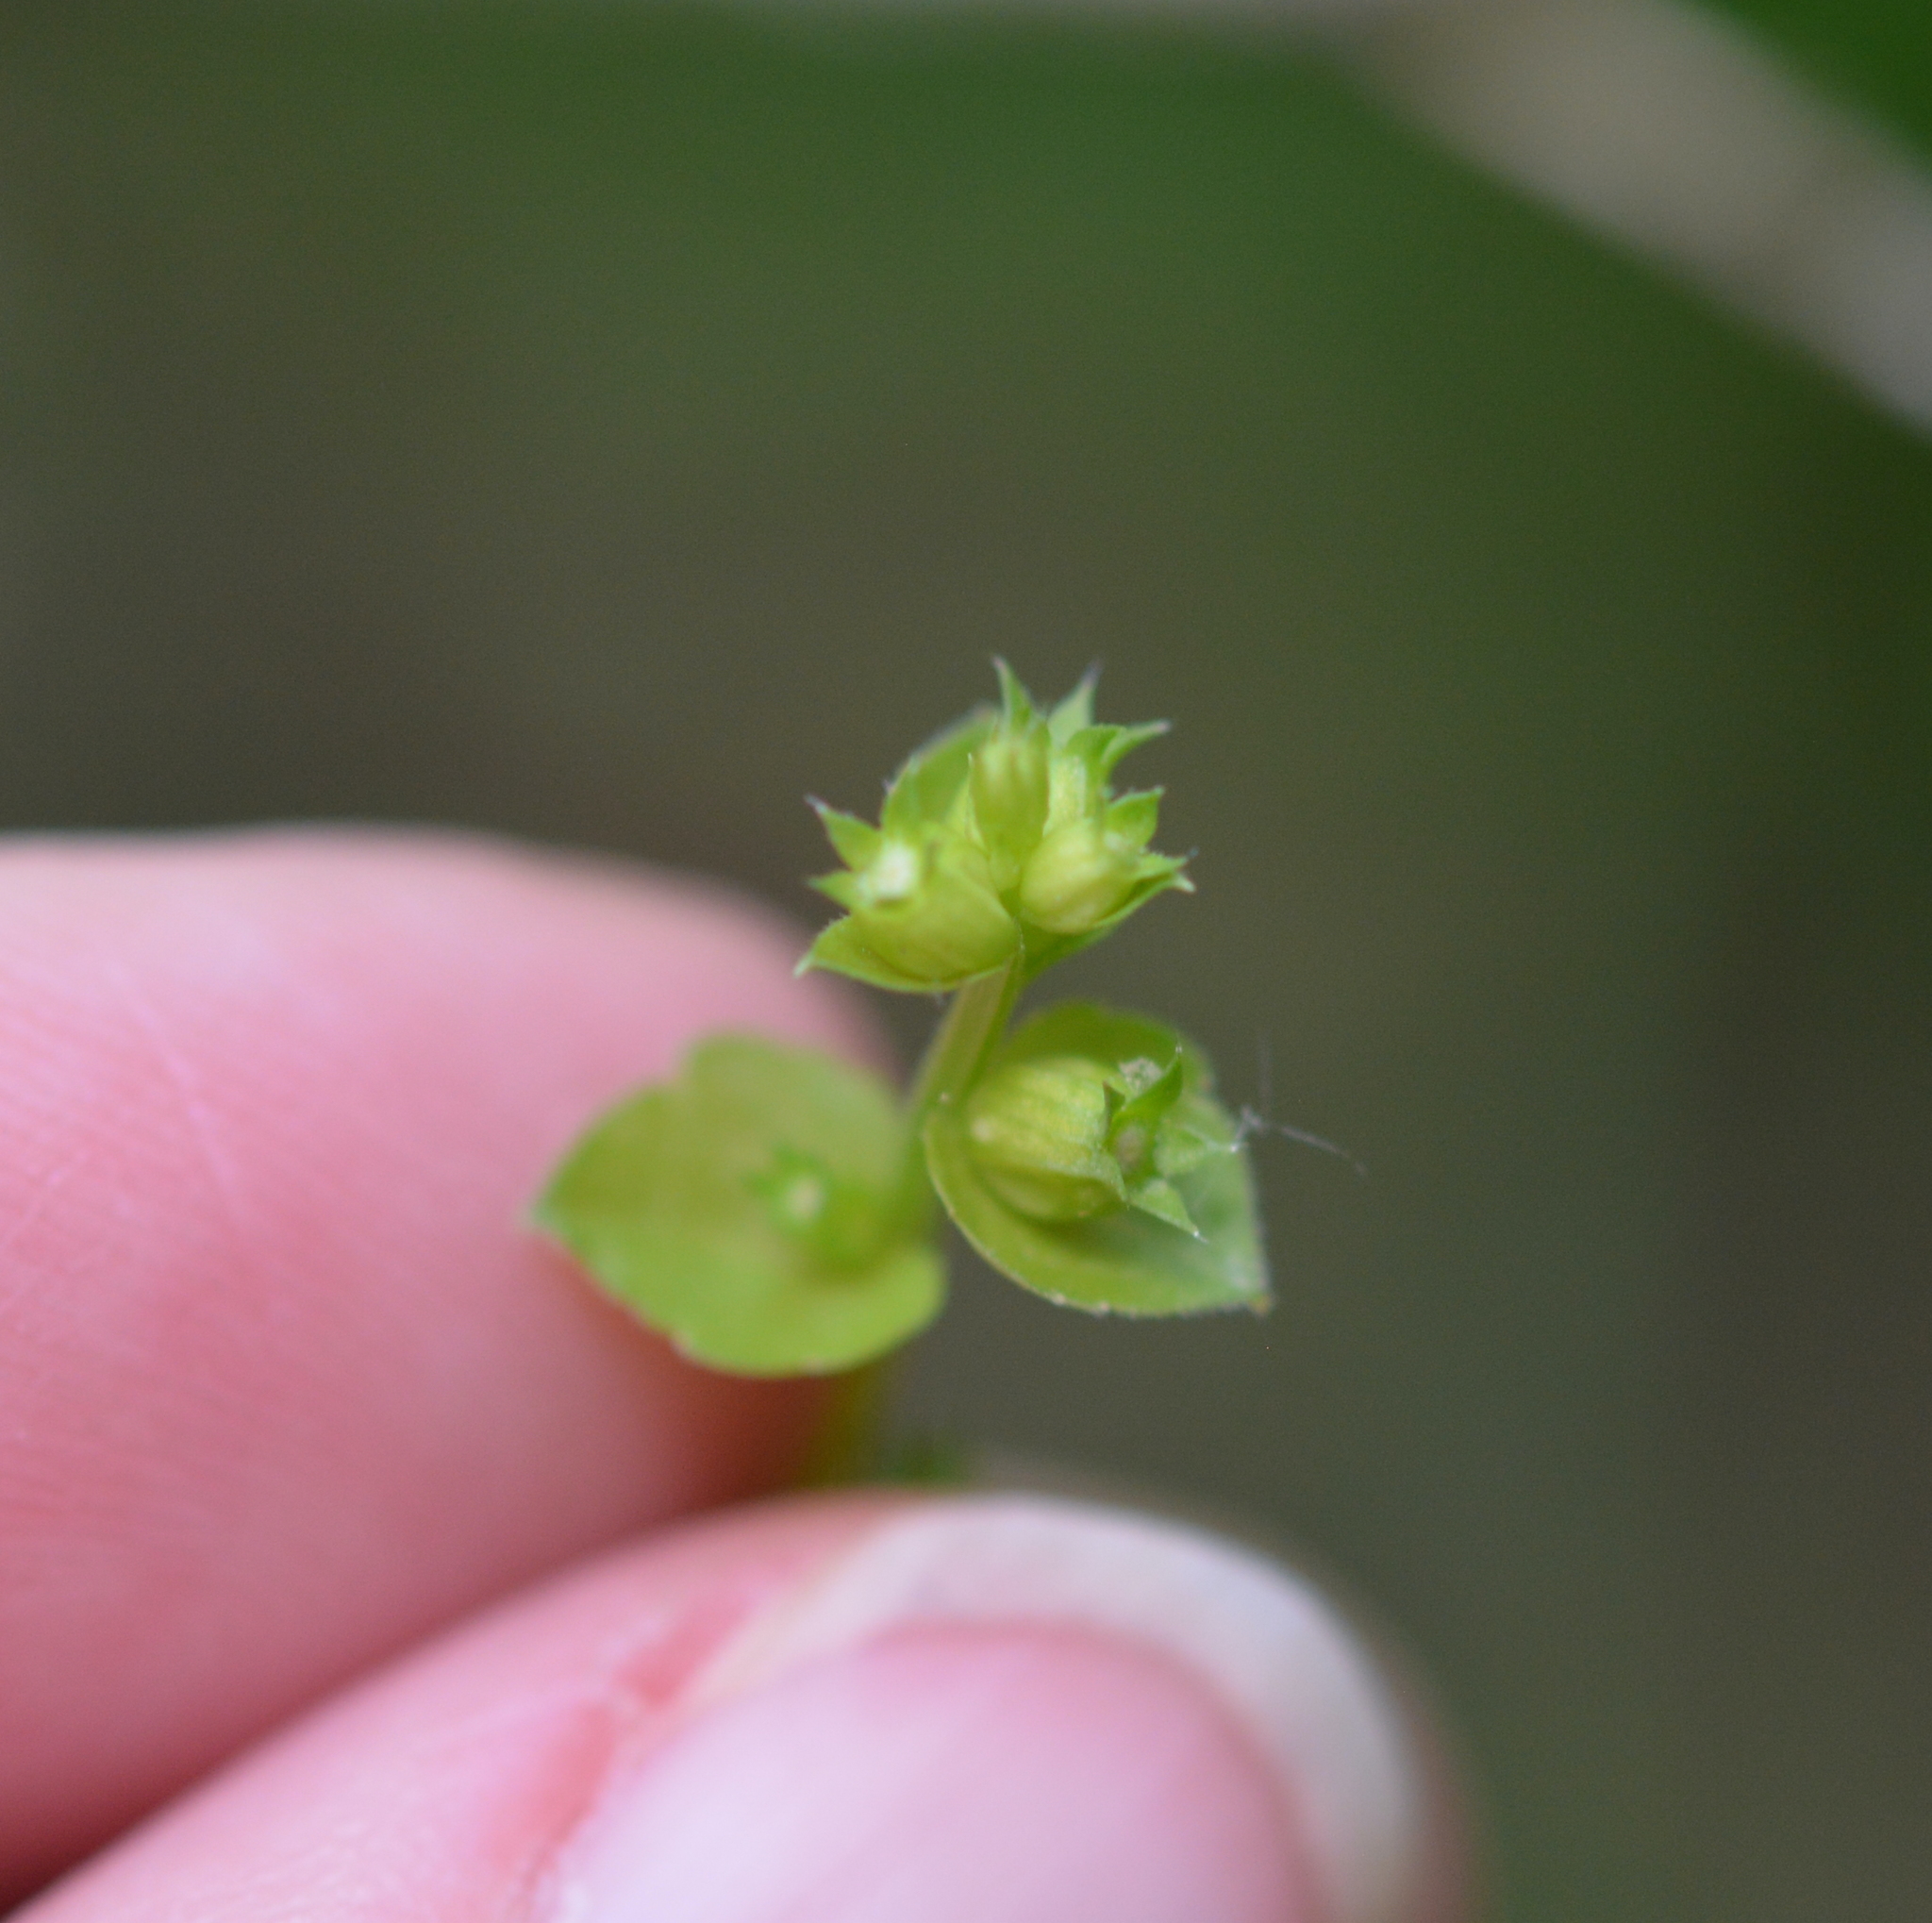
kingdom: Plantae
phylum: Tracheophyta
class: Magnoliopsida
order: Asterales
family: Campanulaceae
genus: Triodanis
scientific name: Triodanis perfoliata
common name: Clasping venus' looking-glass
